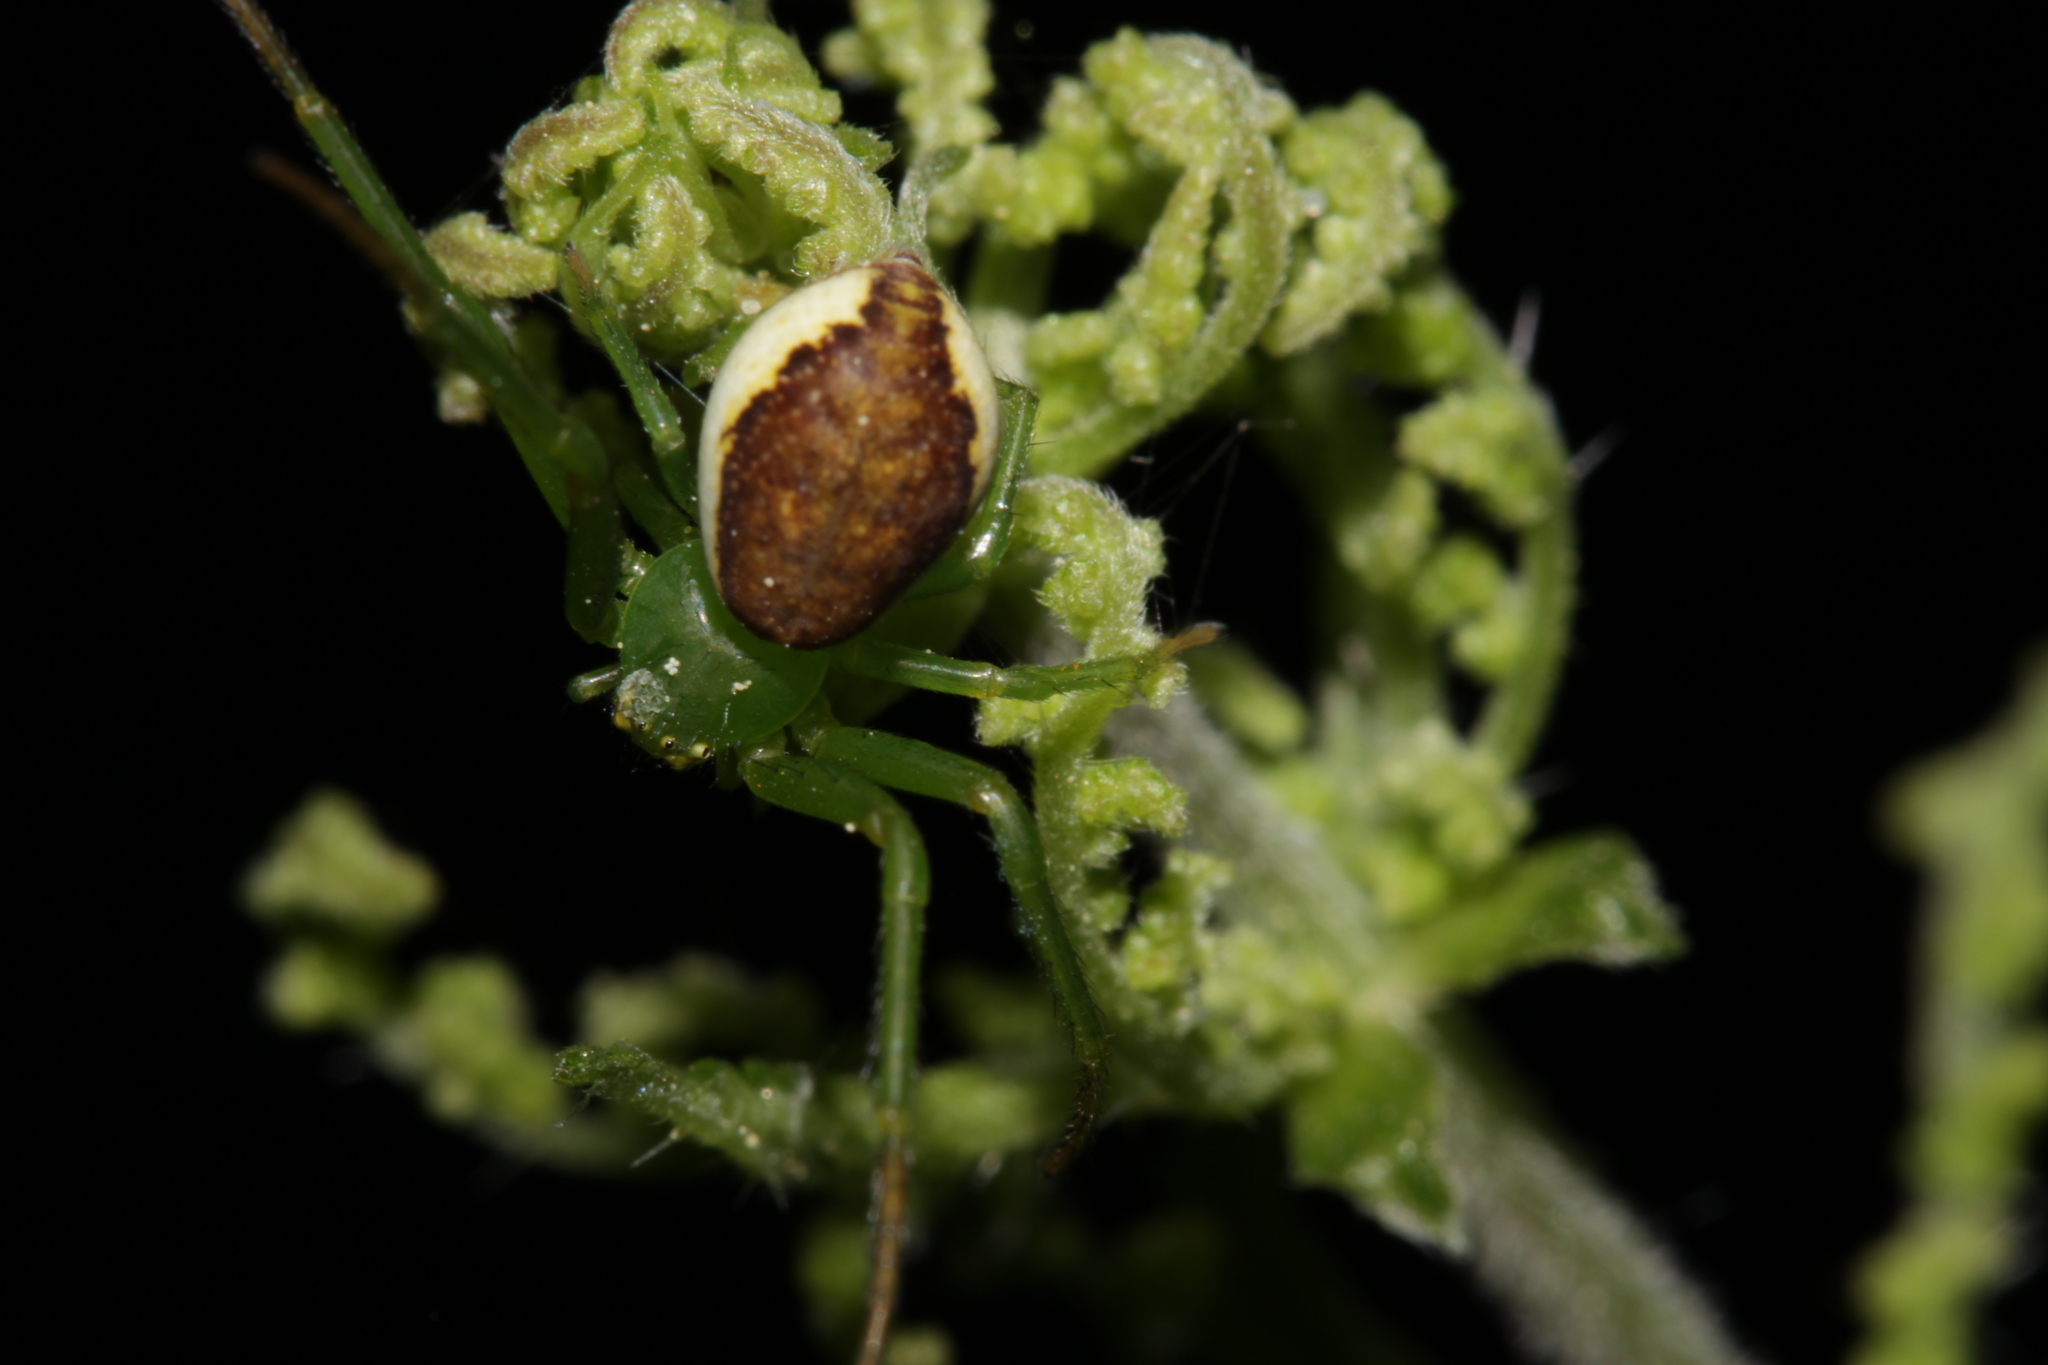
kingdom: Animalia
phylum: Arthropoda
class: Arachnida
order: Araneae
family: Thomisidae
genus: Diaea
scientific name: Diaea dorsata
